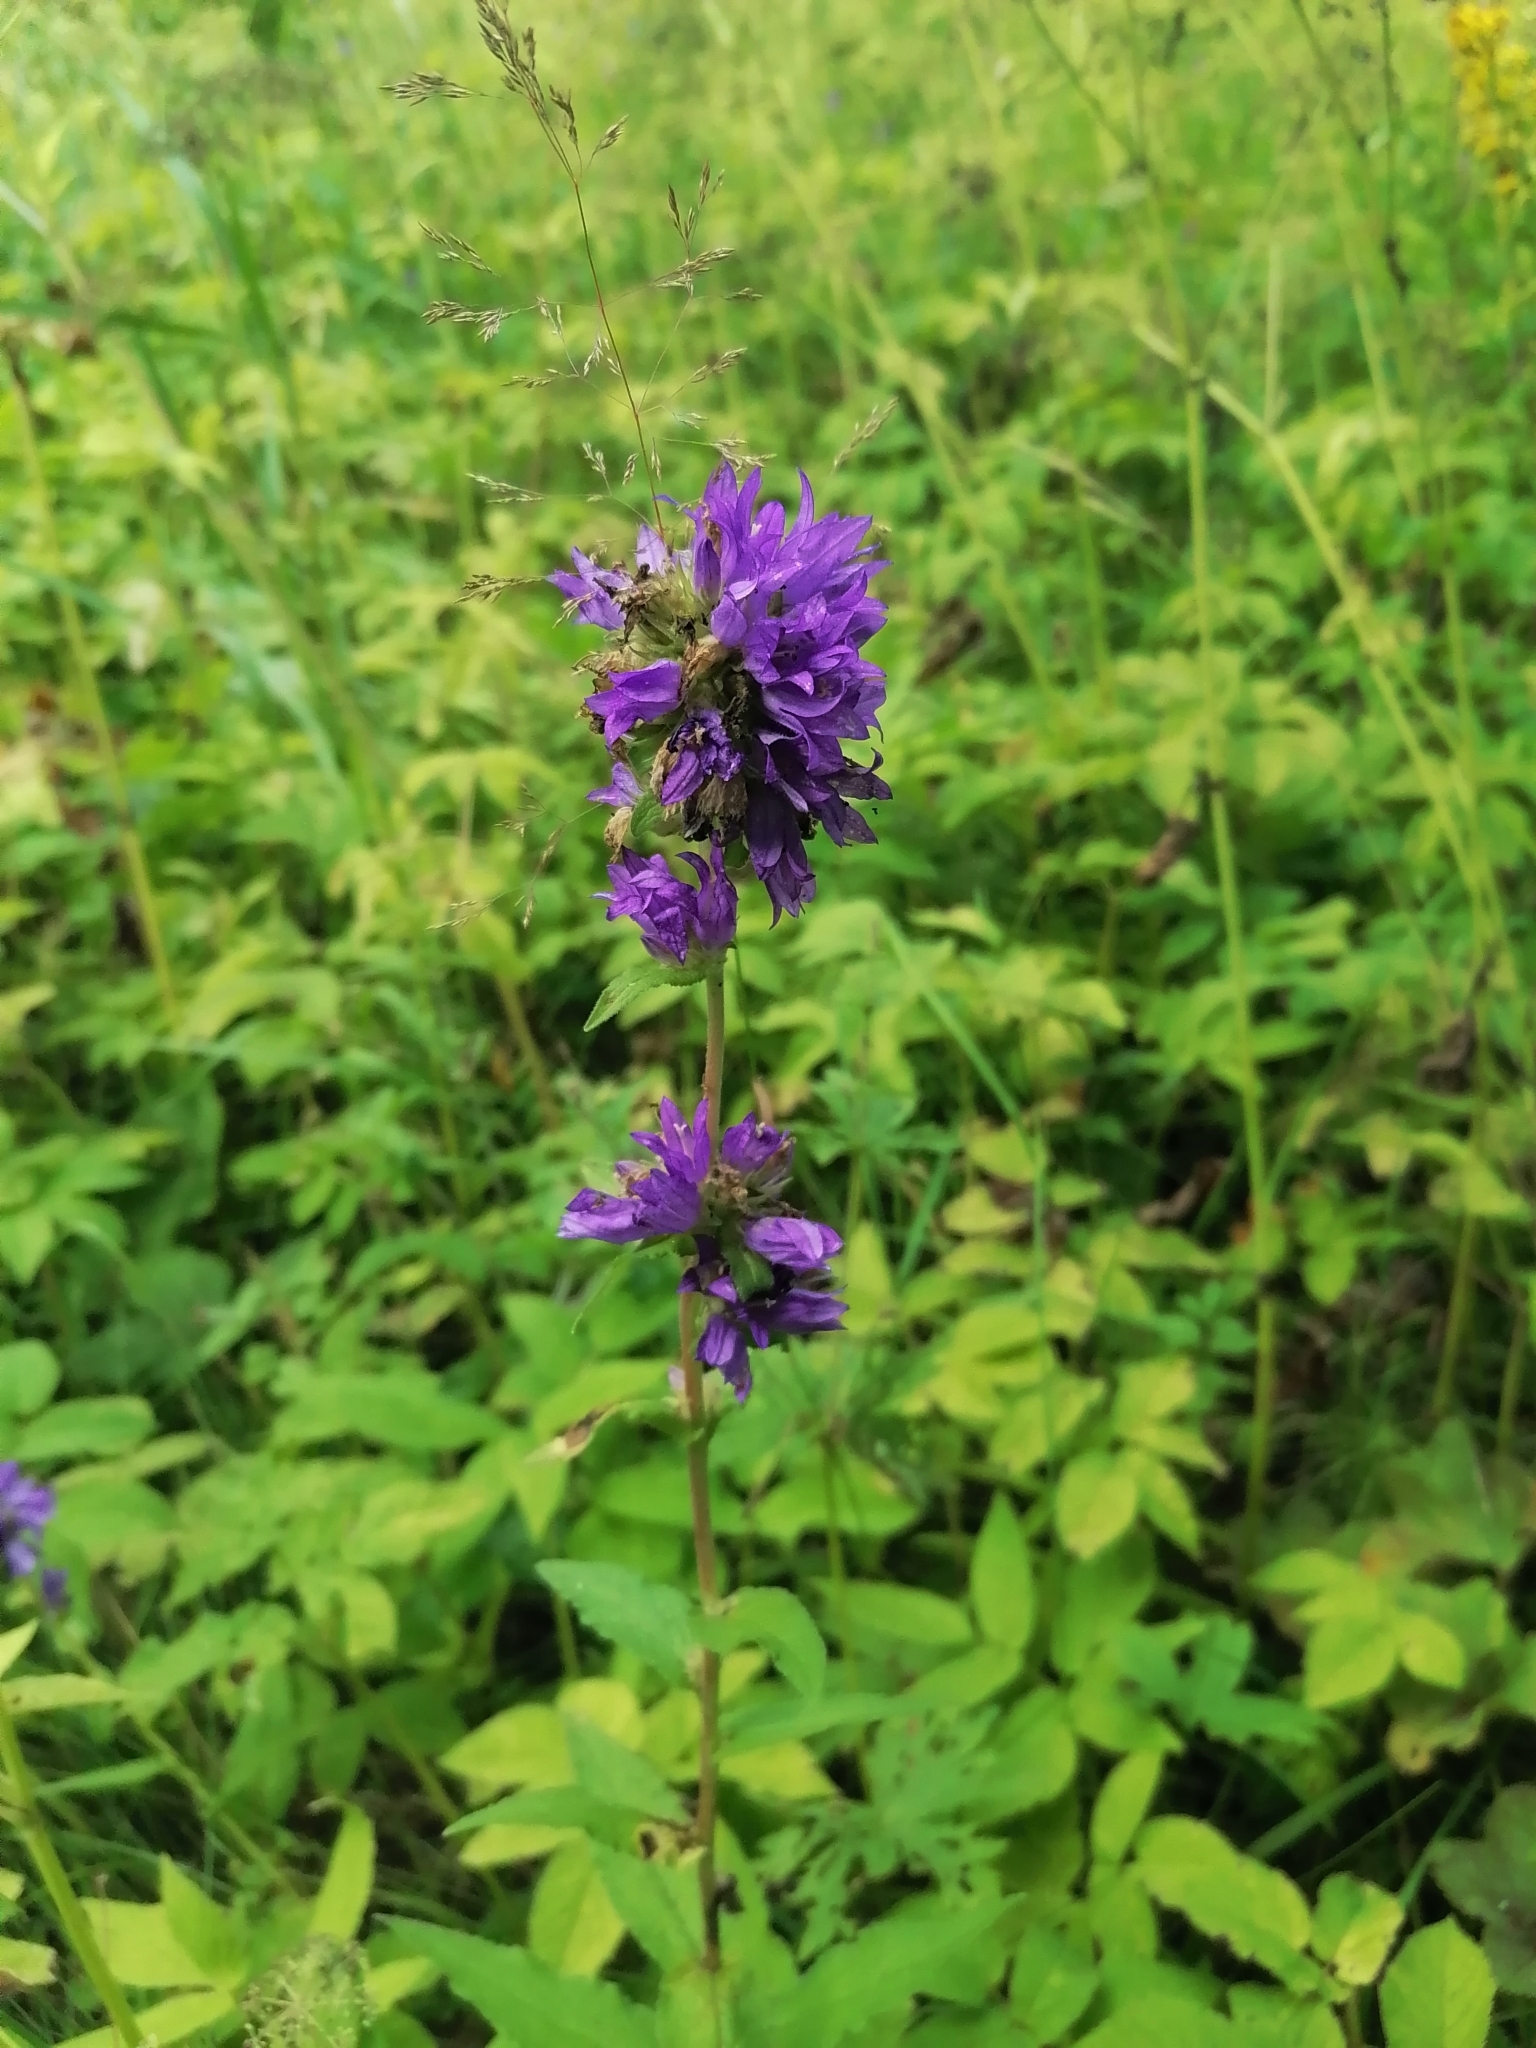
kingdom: Plantae
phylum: Tracheophyta
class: Magnoliopsida
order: Asterales
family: Campanulaceae
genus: Campanula
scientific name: Campanula glomerata
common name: Clustered bellflower
